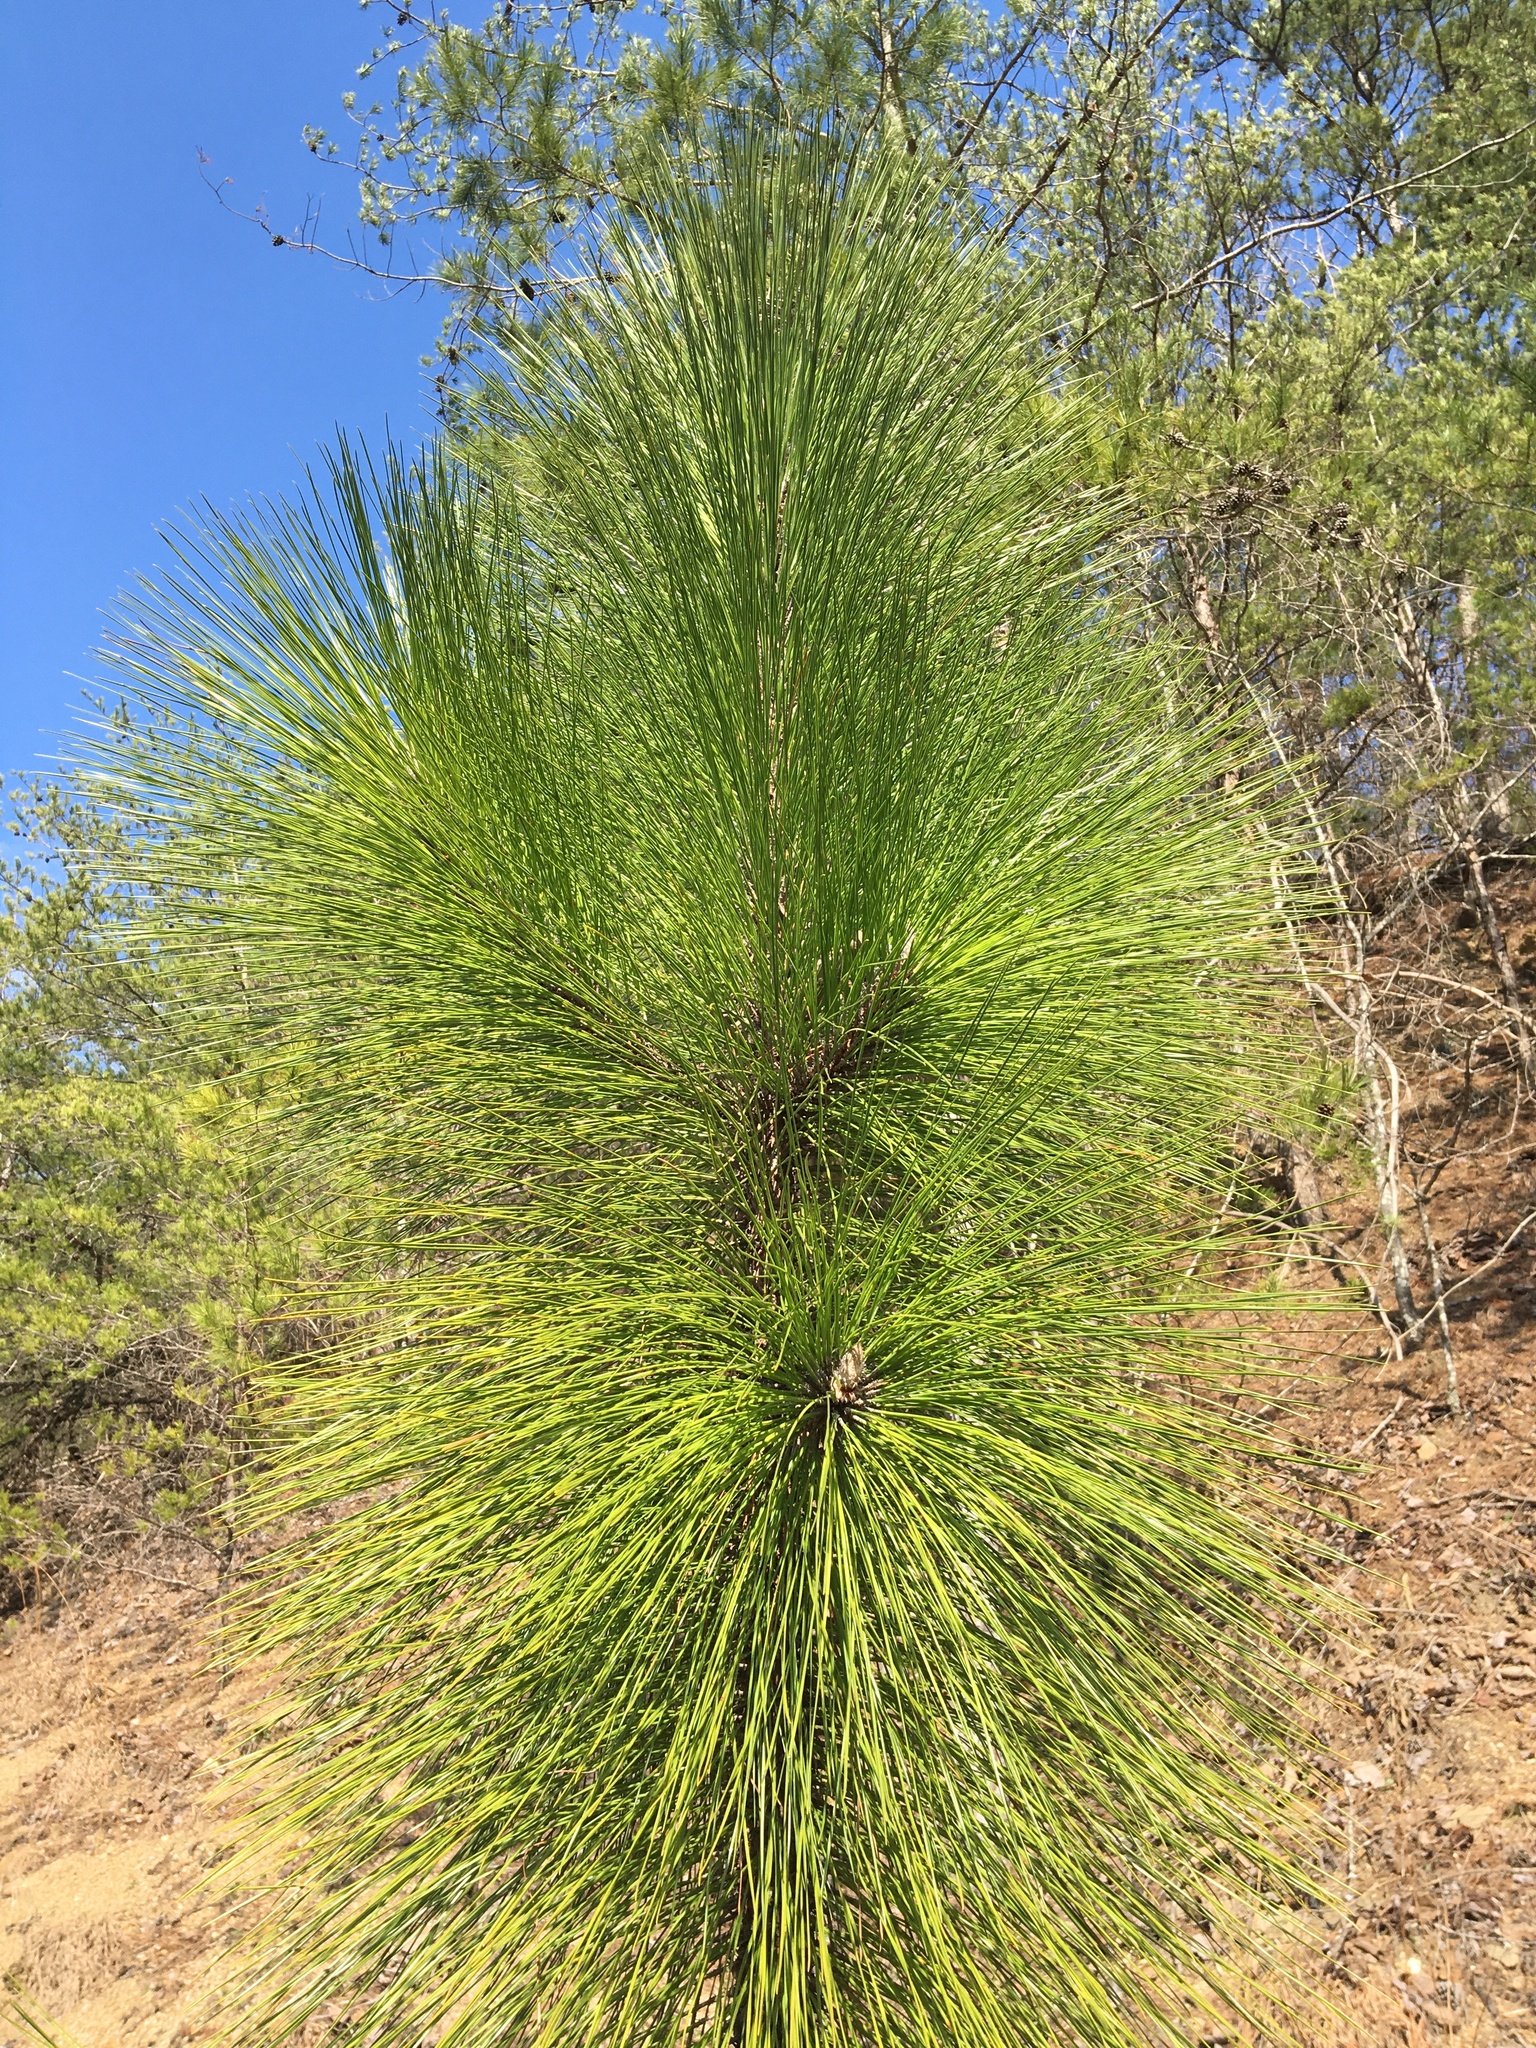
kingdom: Plantae
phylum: Tracheophyta
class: Pinopsida
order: Pinales
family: Pinaceae
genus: Pinus
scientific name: Pinus palustris
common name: Longleaf pine
